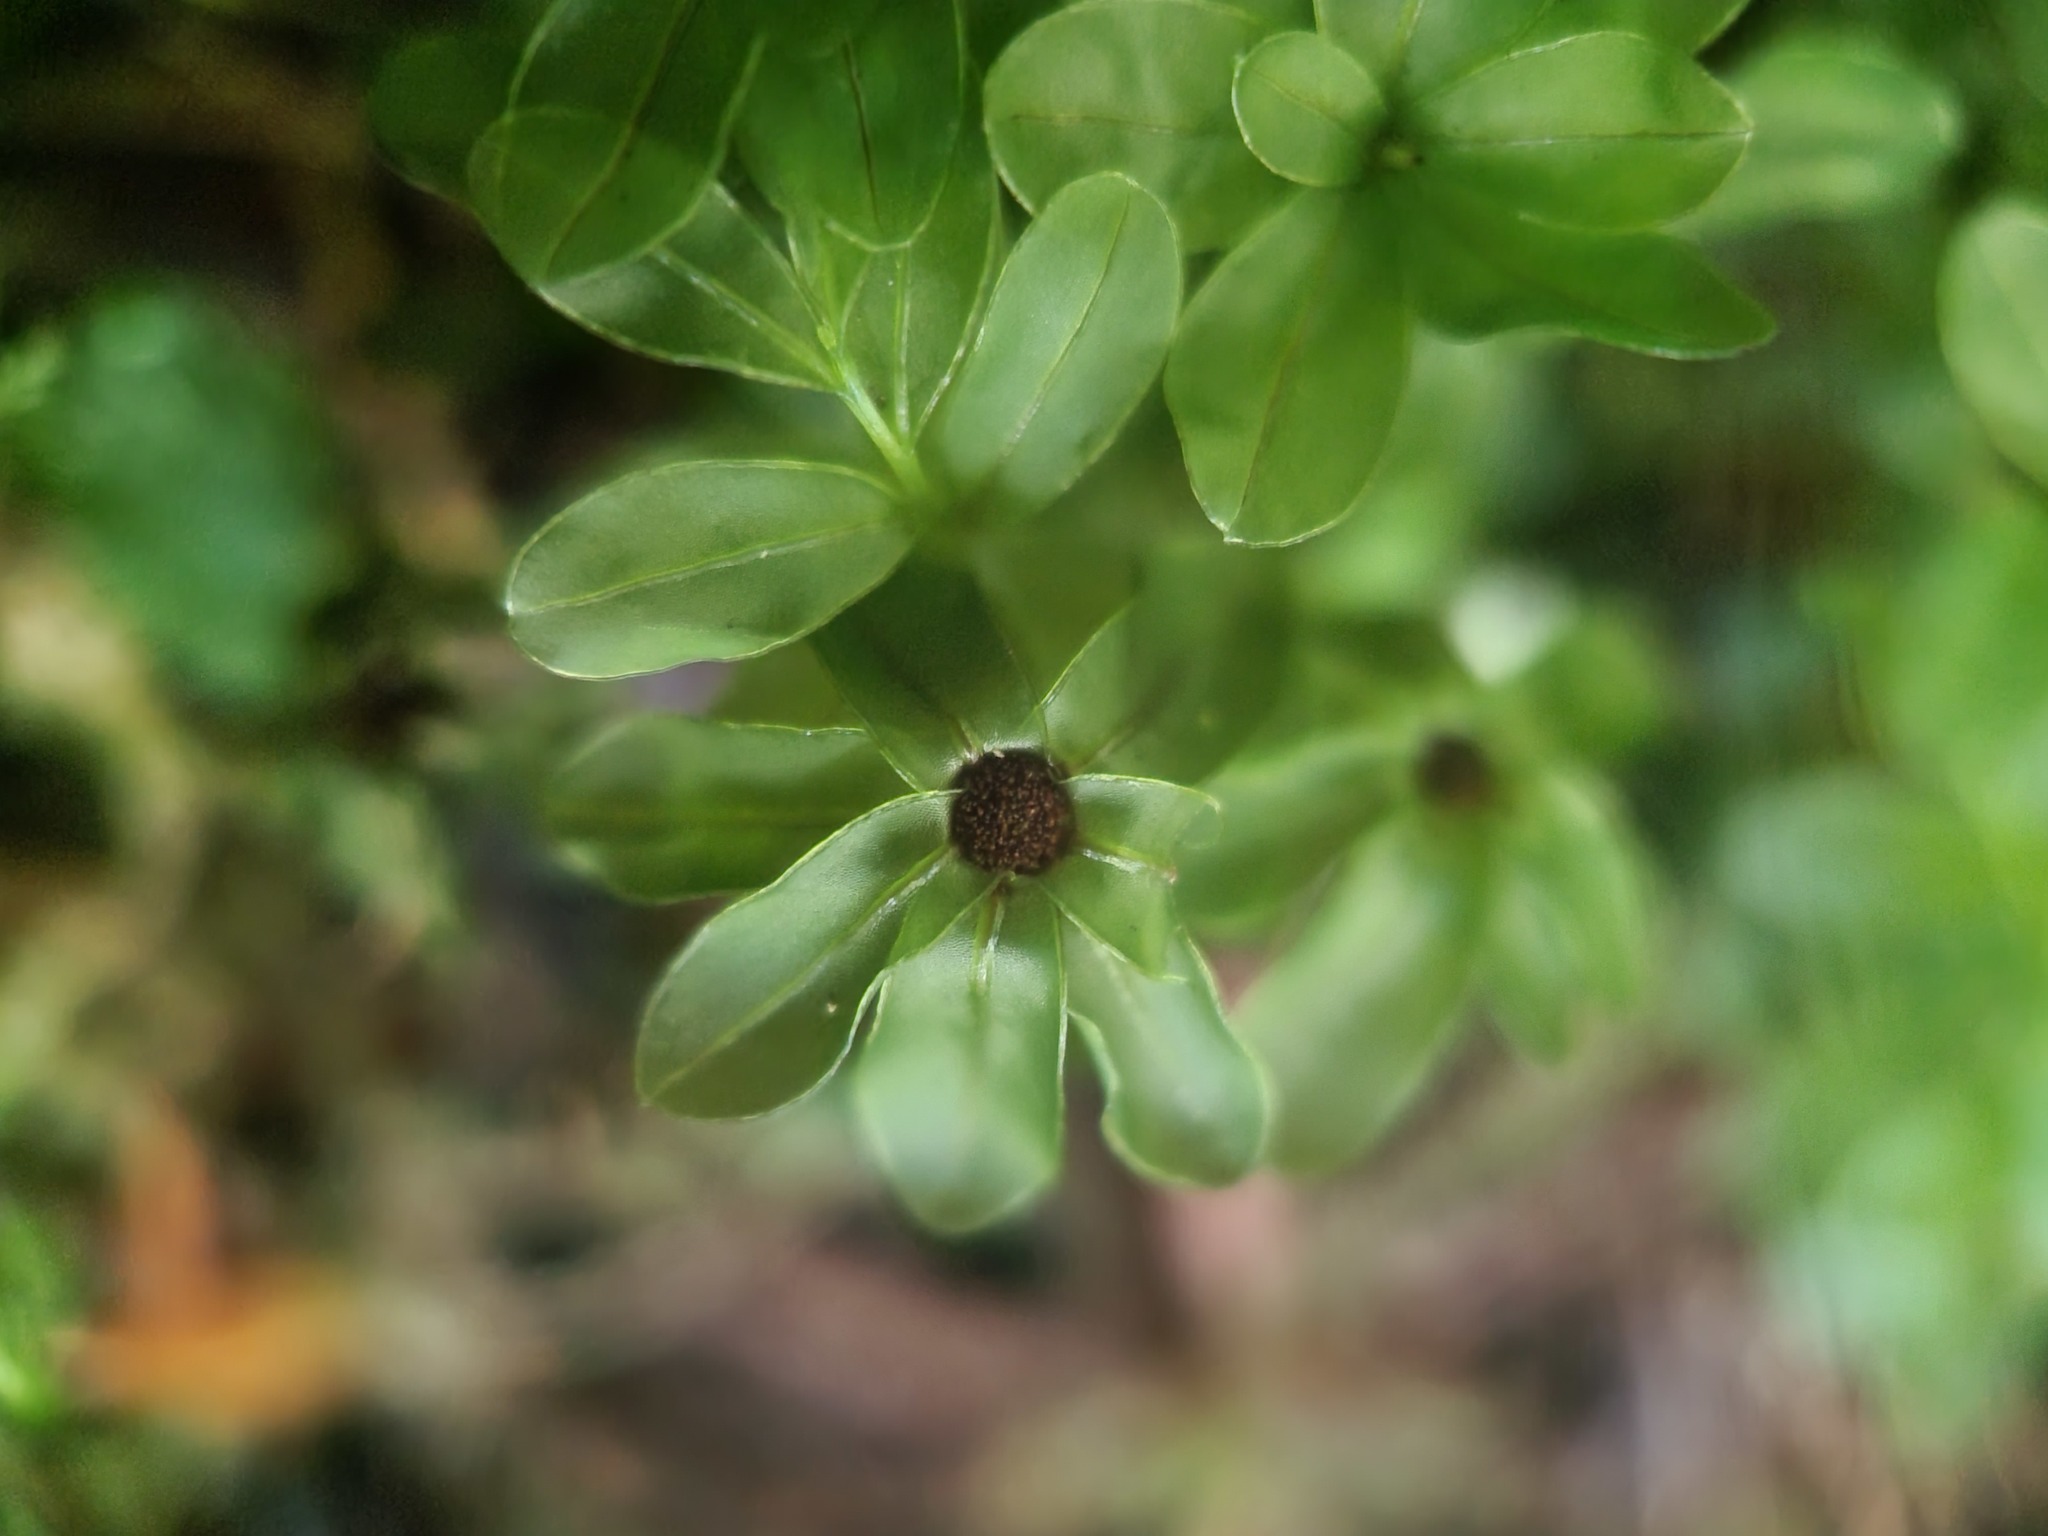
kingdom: Plantae
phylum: Bryophyta
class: Bryopsida
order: Bryales
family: Mniaceae
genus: Rhizomnium
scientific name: Rhizomnium glabrescens
